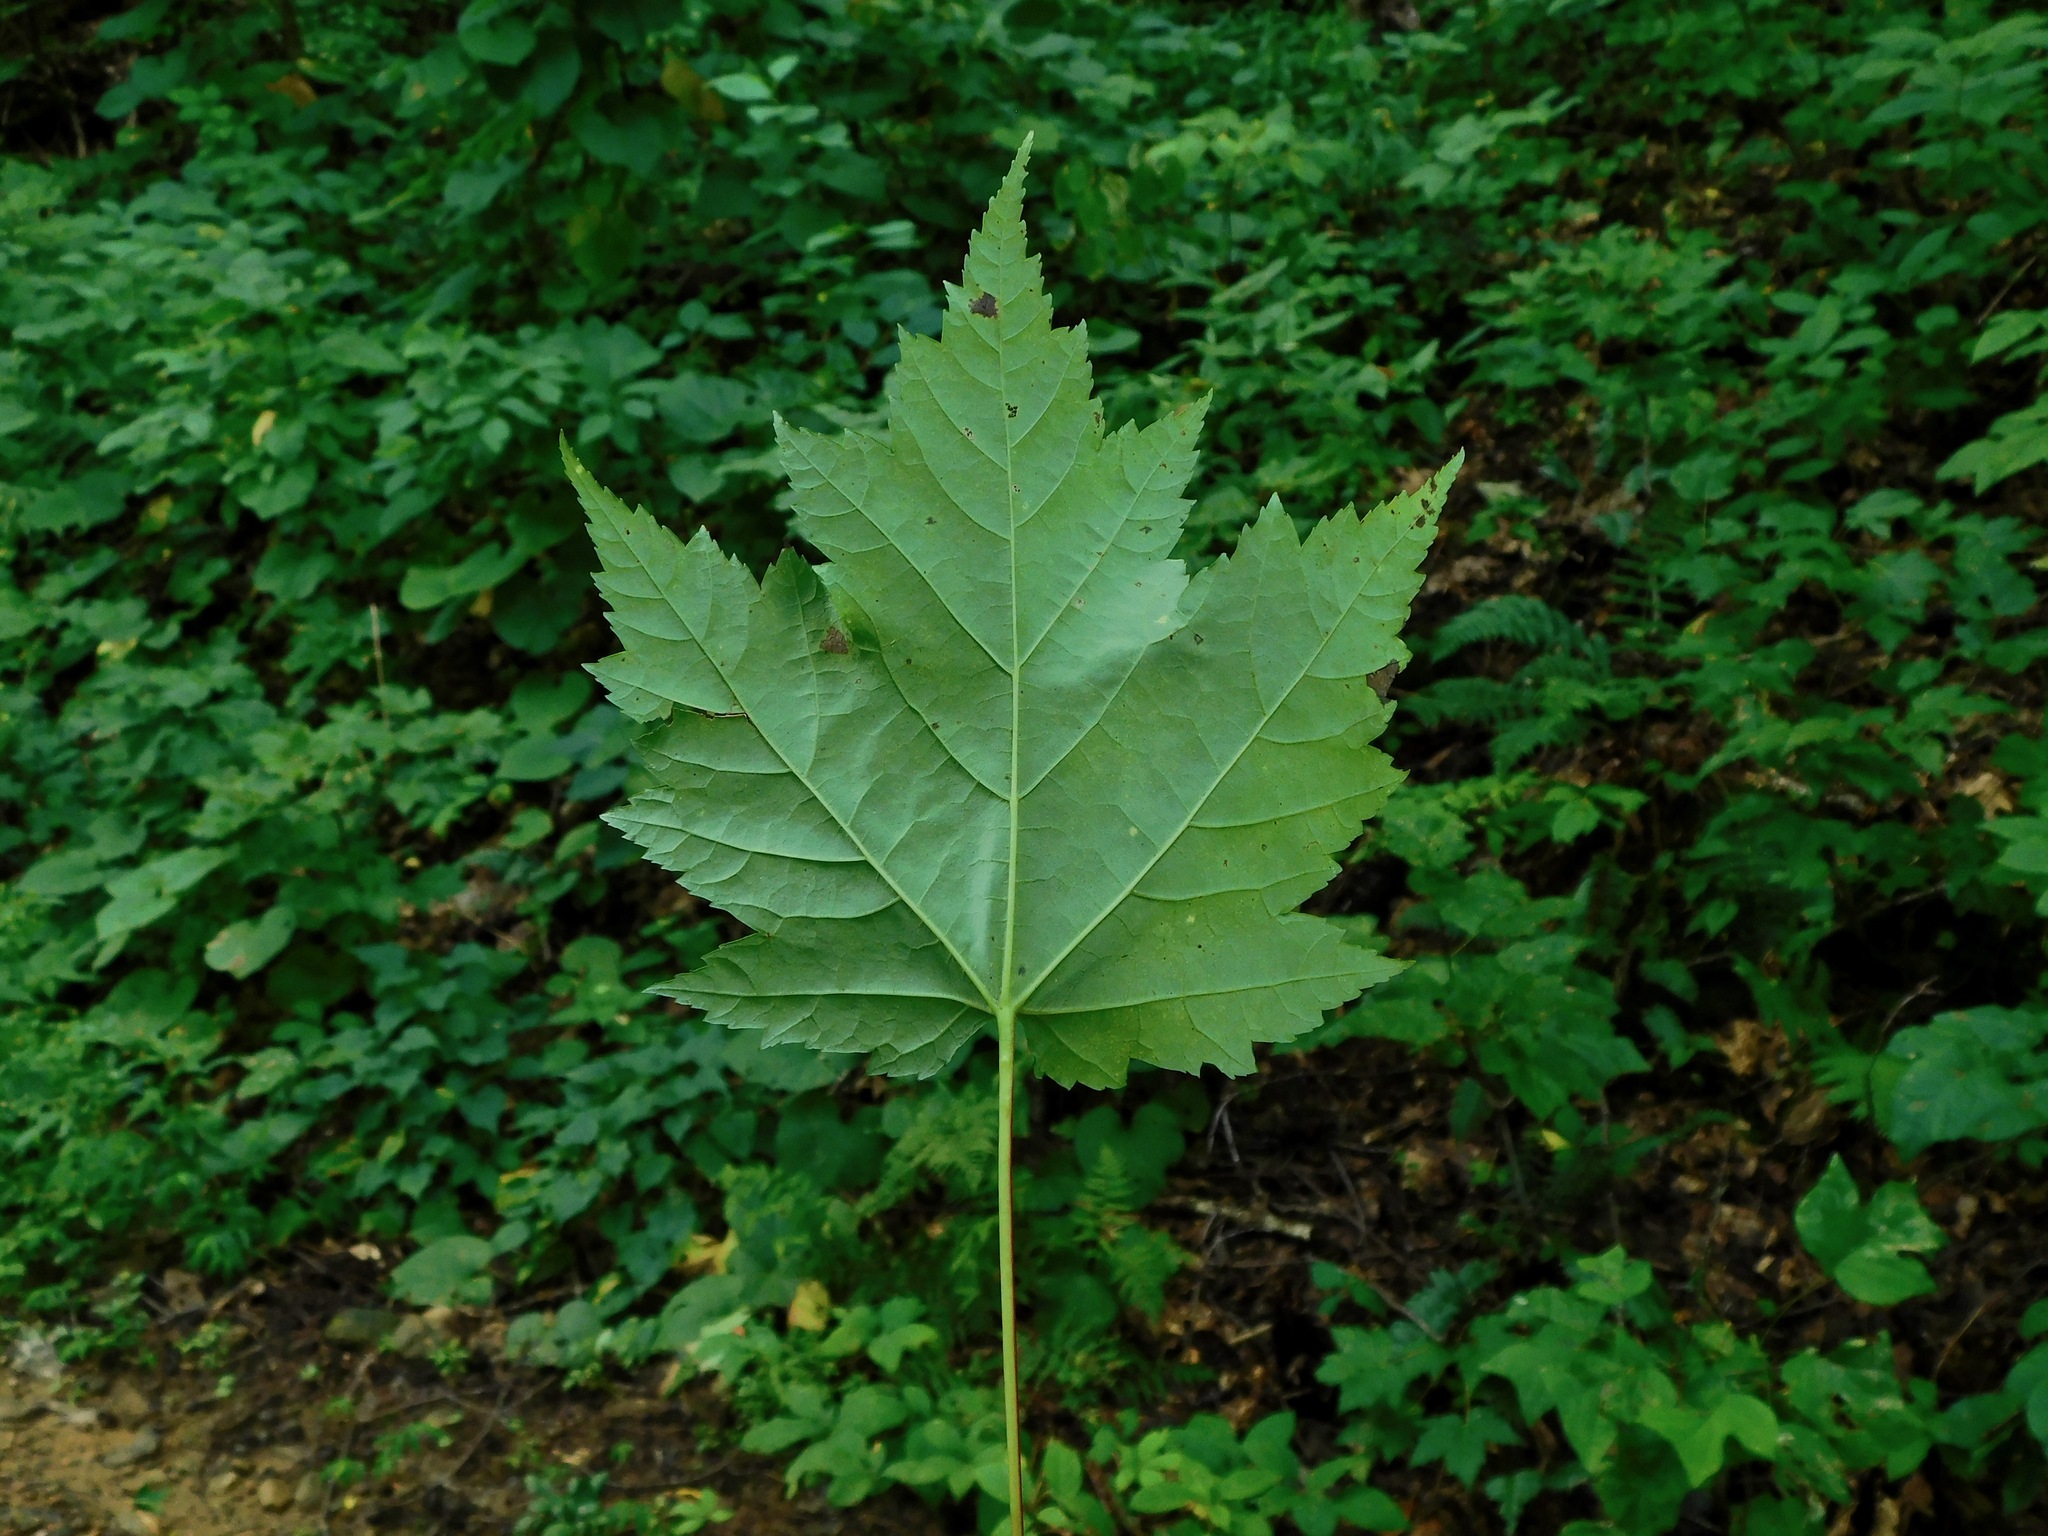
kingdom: Plantae
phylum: Tracheophyta
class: Magnoliopsida
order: Sapindales
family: Sapindaceae
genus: Acer
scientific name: Acer freemanii
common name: Freeman maple
